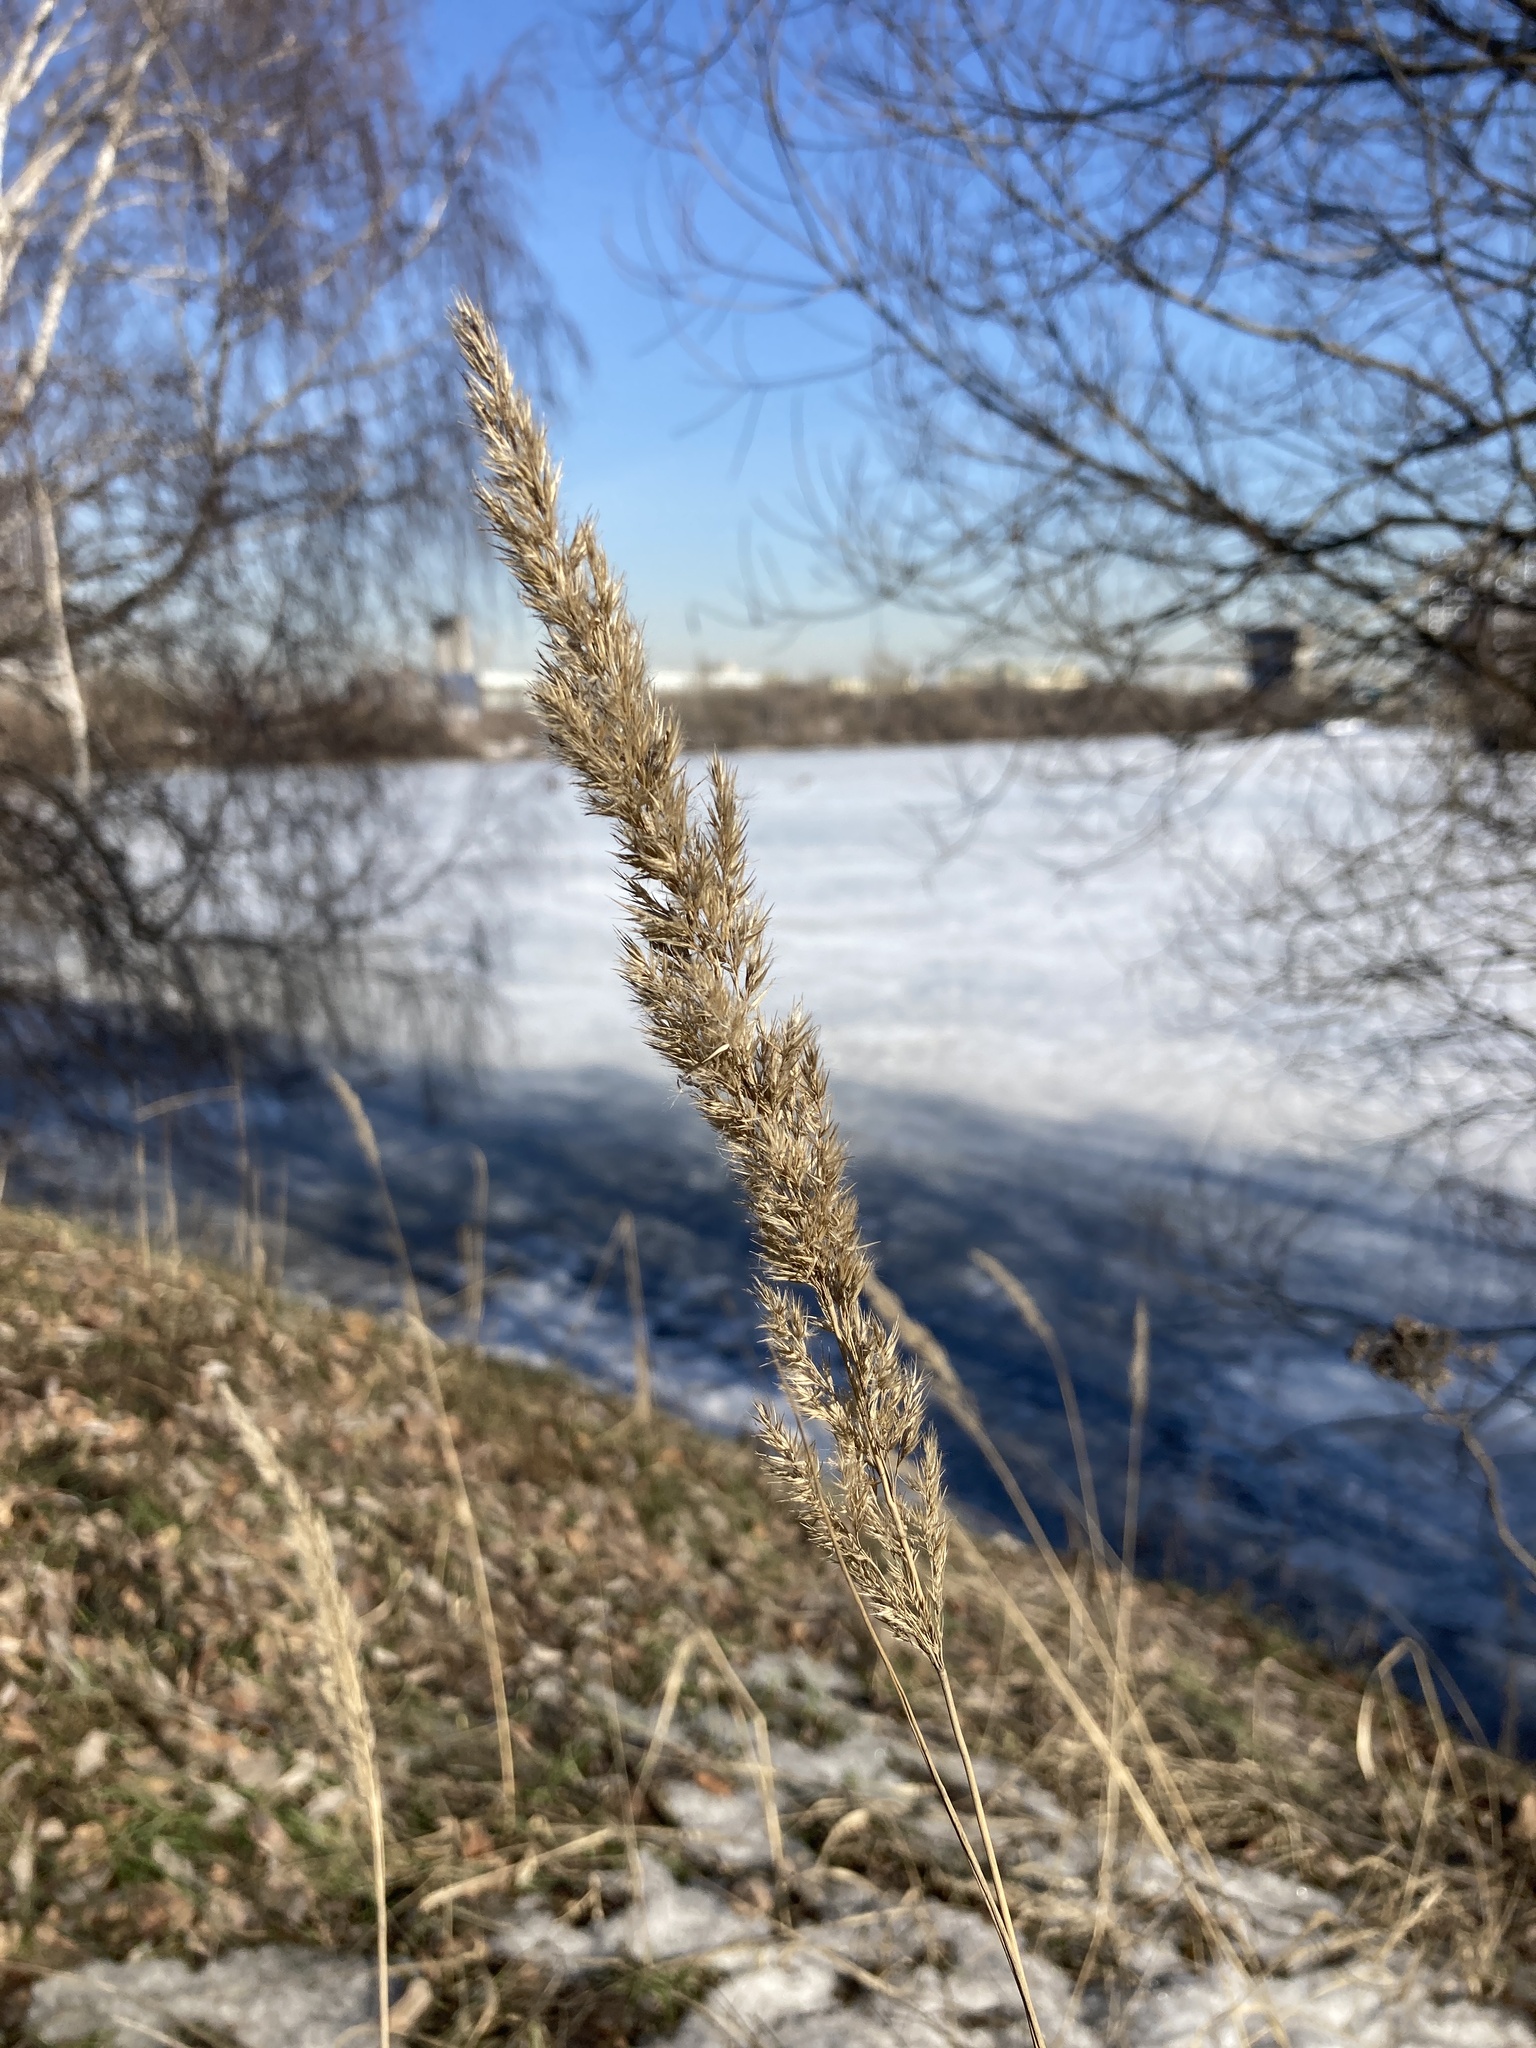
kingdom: Plantae
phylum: Tracheophyta
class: Liliopsida
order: Poales
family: Poaceae
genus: Calamagrostis
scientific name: Calamagrostis epigejos
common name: Wood small-reed
